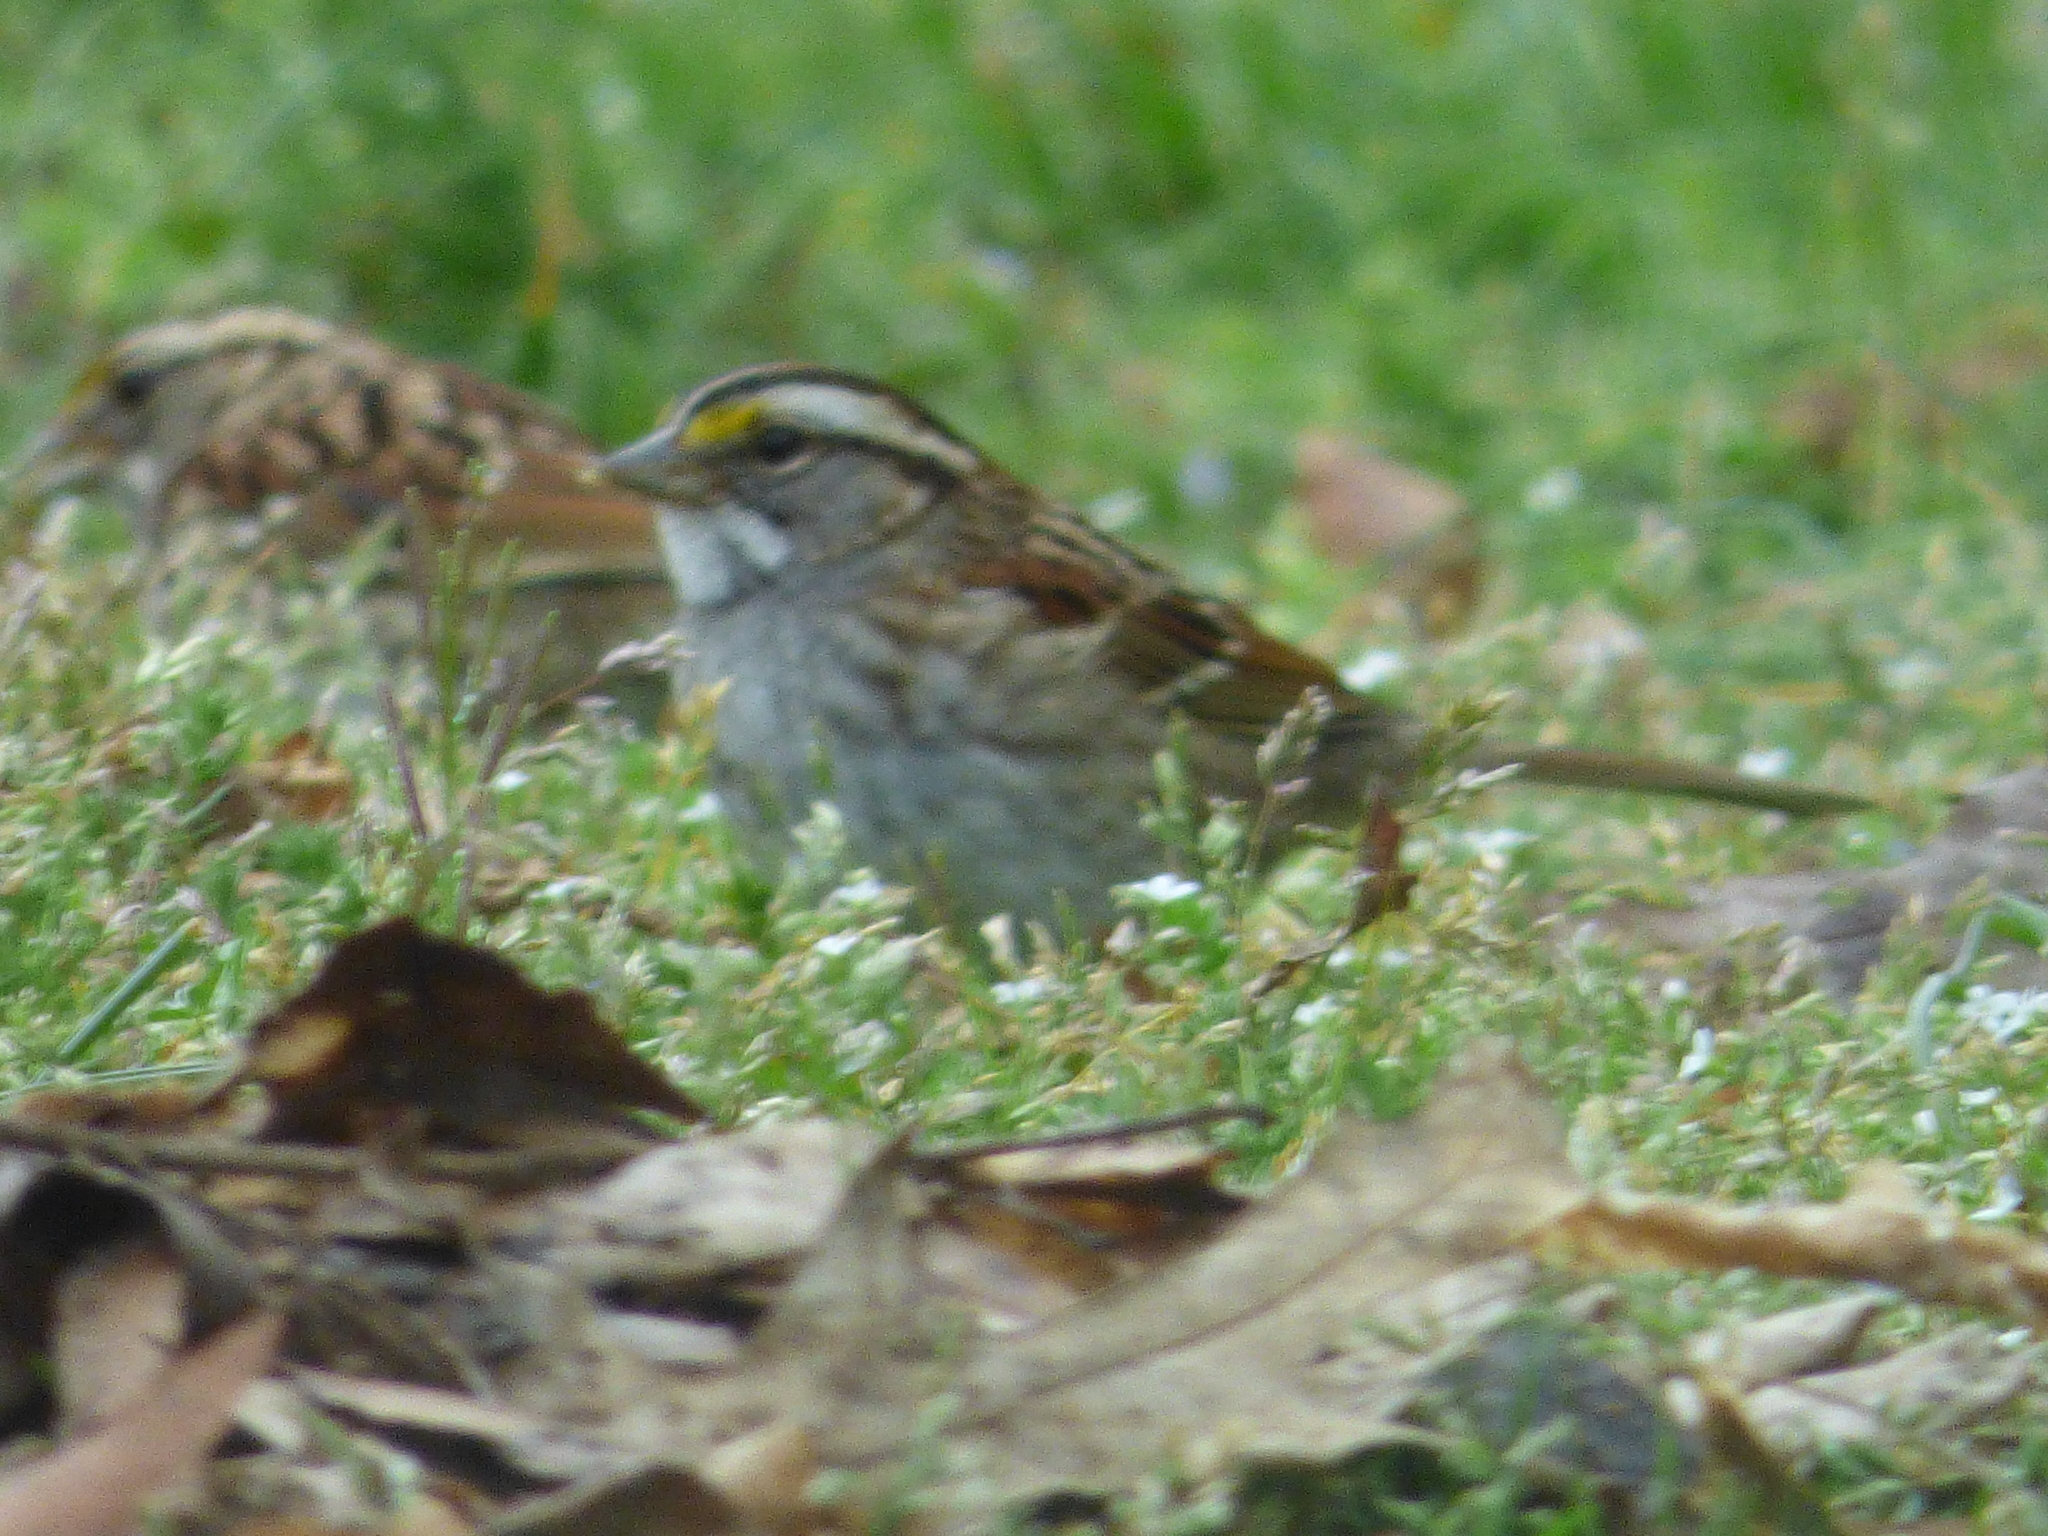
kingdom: Animalia
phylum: Chordata
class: Aves
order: Passeriformes
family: Passerellidae
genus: Zonotrichia
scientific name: Zonotrichia albicollis
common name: White-throated sparrow
